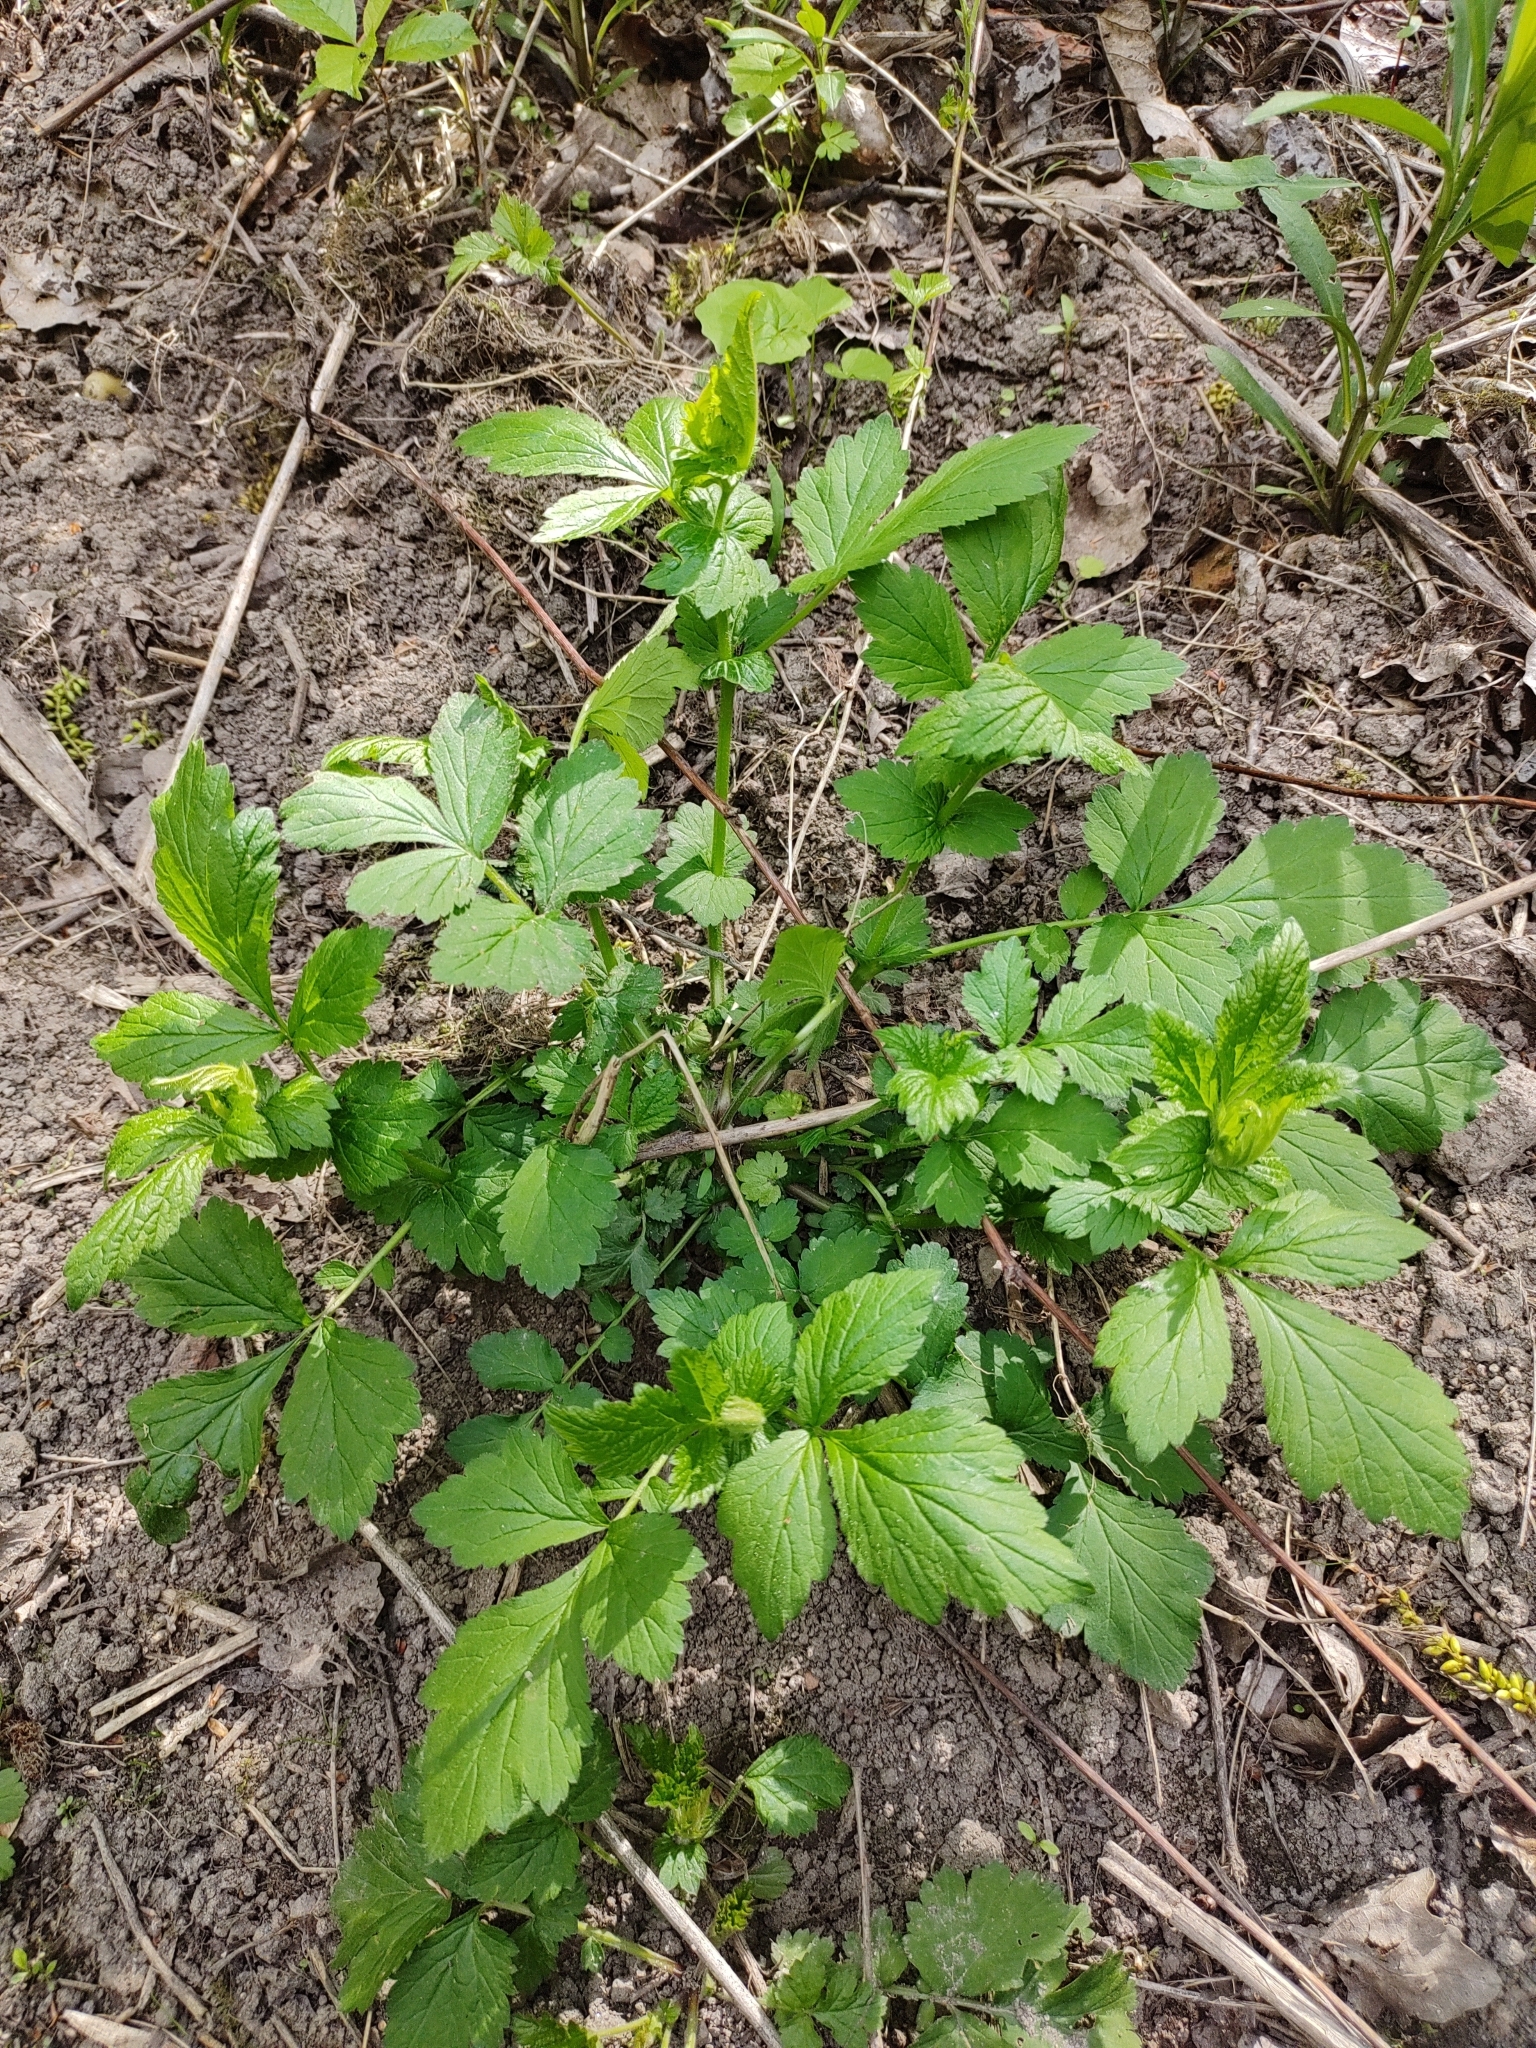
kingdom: Plantae
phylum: Tracheophyta
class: Magnoliopsida
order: Rosales
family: Rosaceae
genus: Geum
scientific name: Geum urbanum
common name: Wood avens
